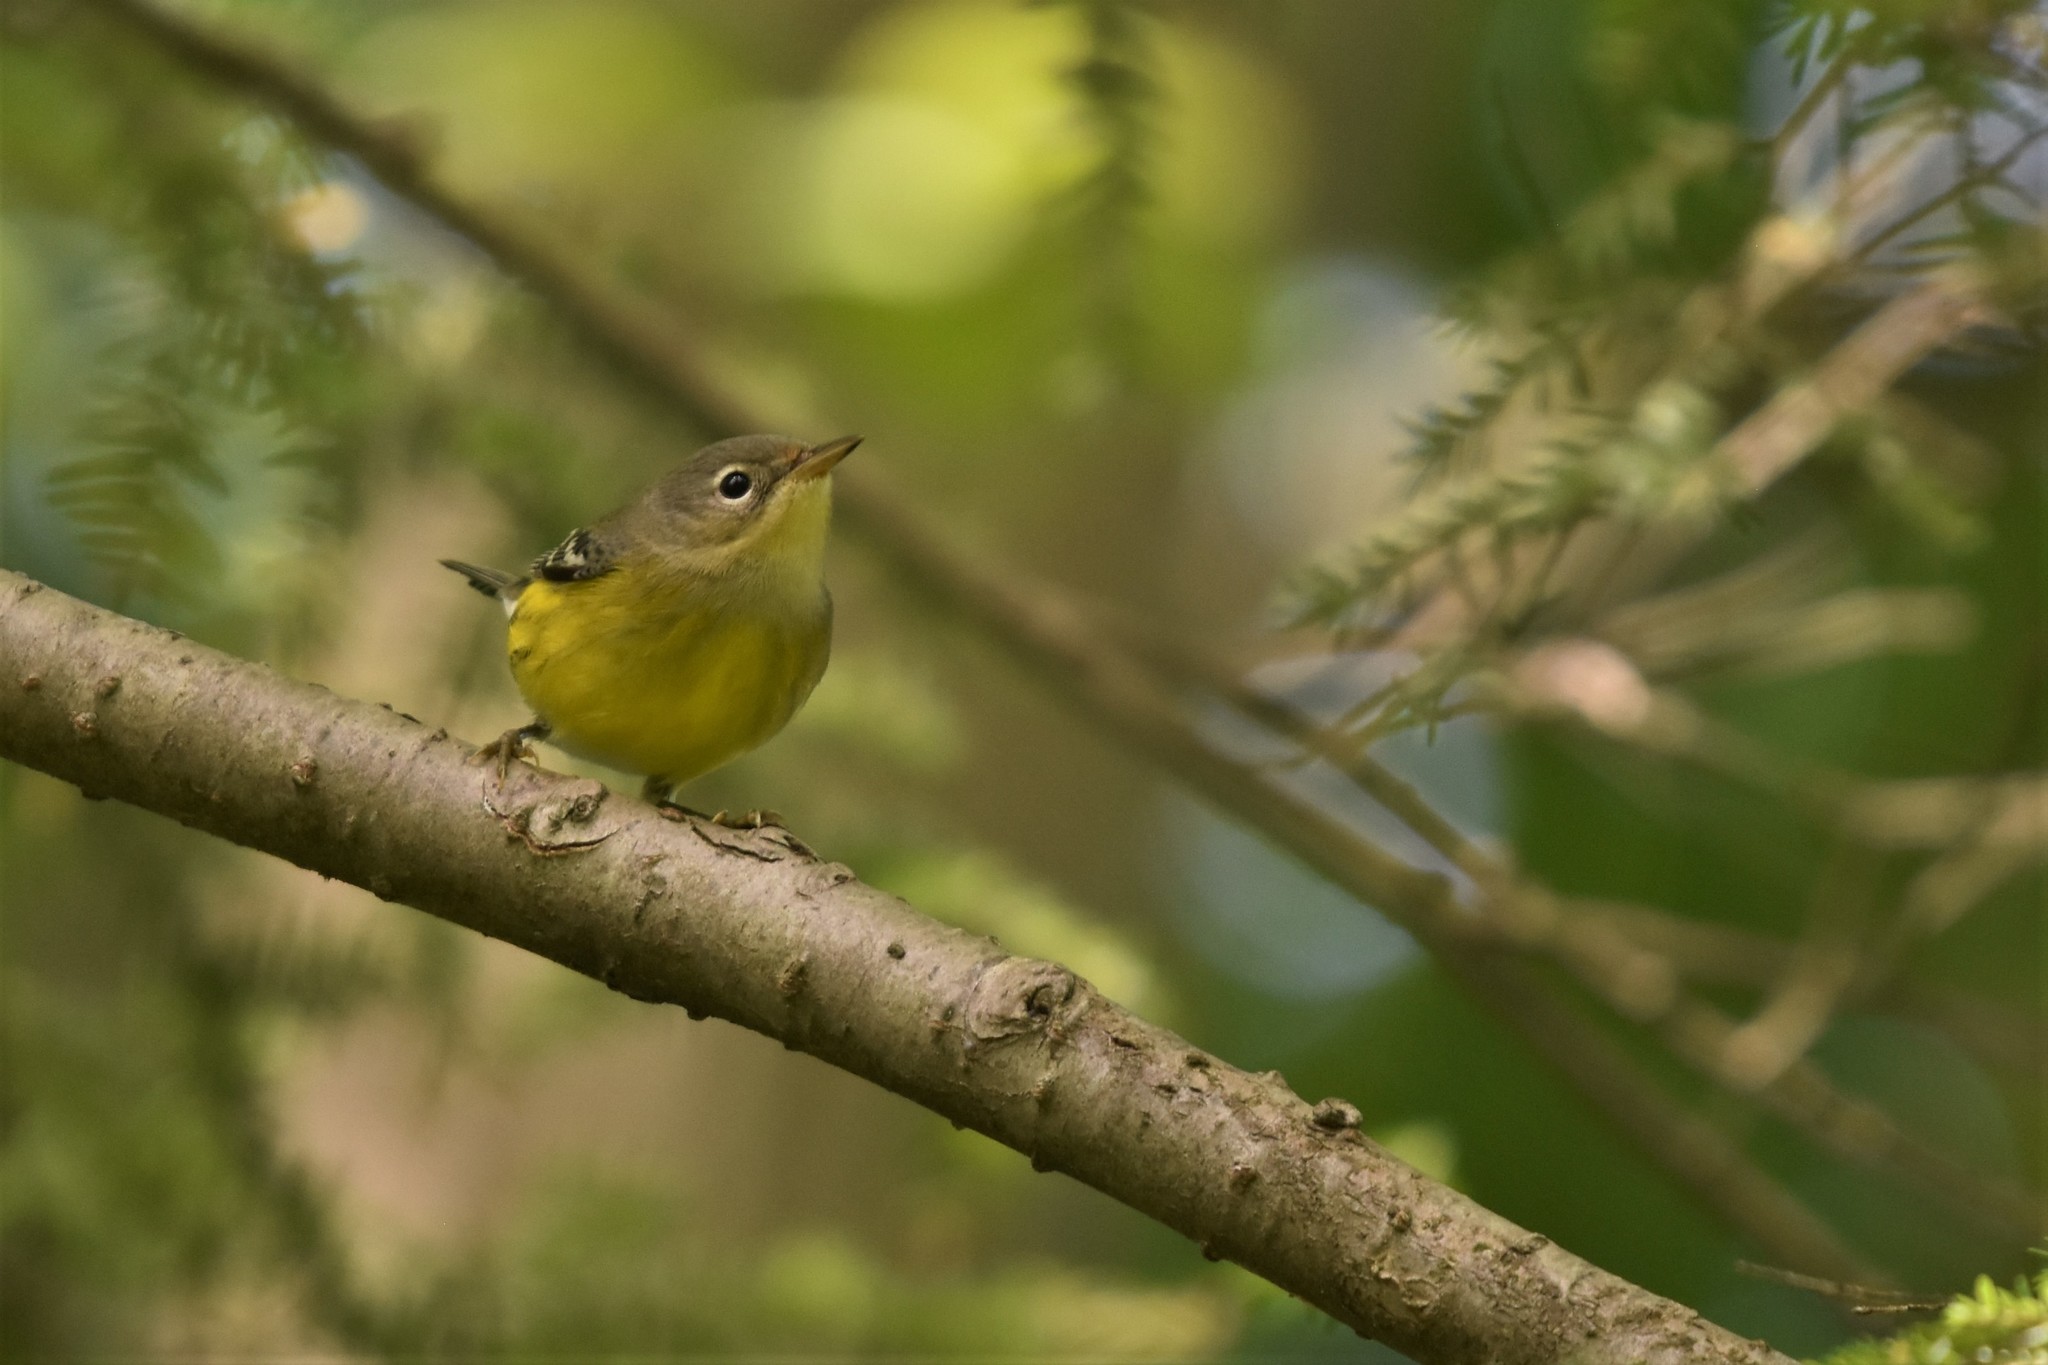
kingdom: Animalia
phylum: Chordata
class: Aves
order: Passeriformes
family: Parulidae
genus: Setophaga
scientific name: Setophaga magnolia
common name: Magnolia warbler
